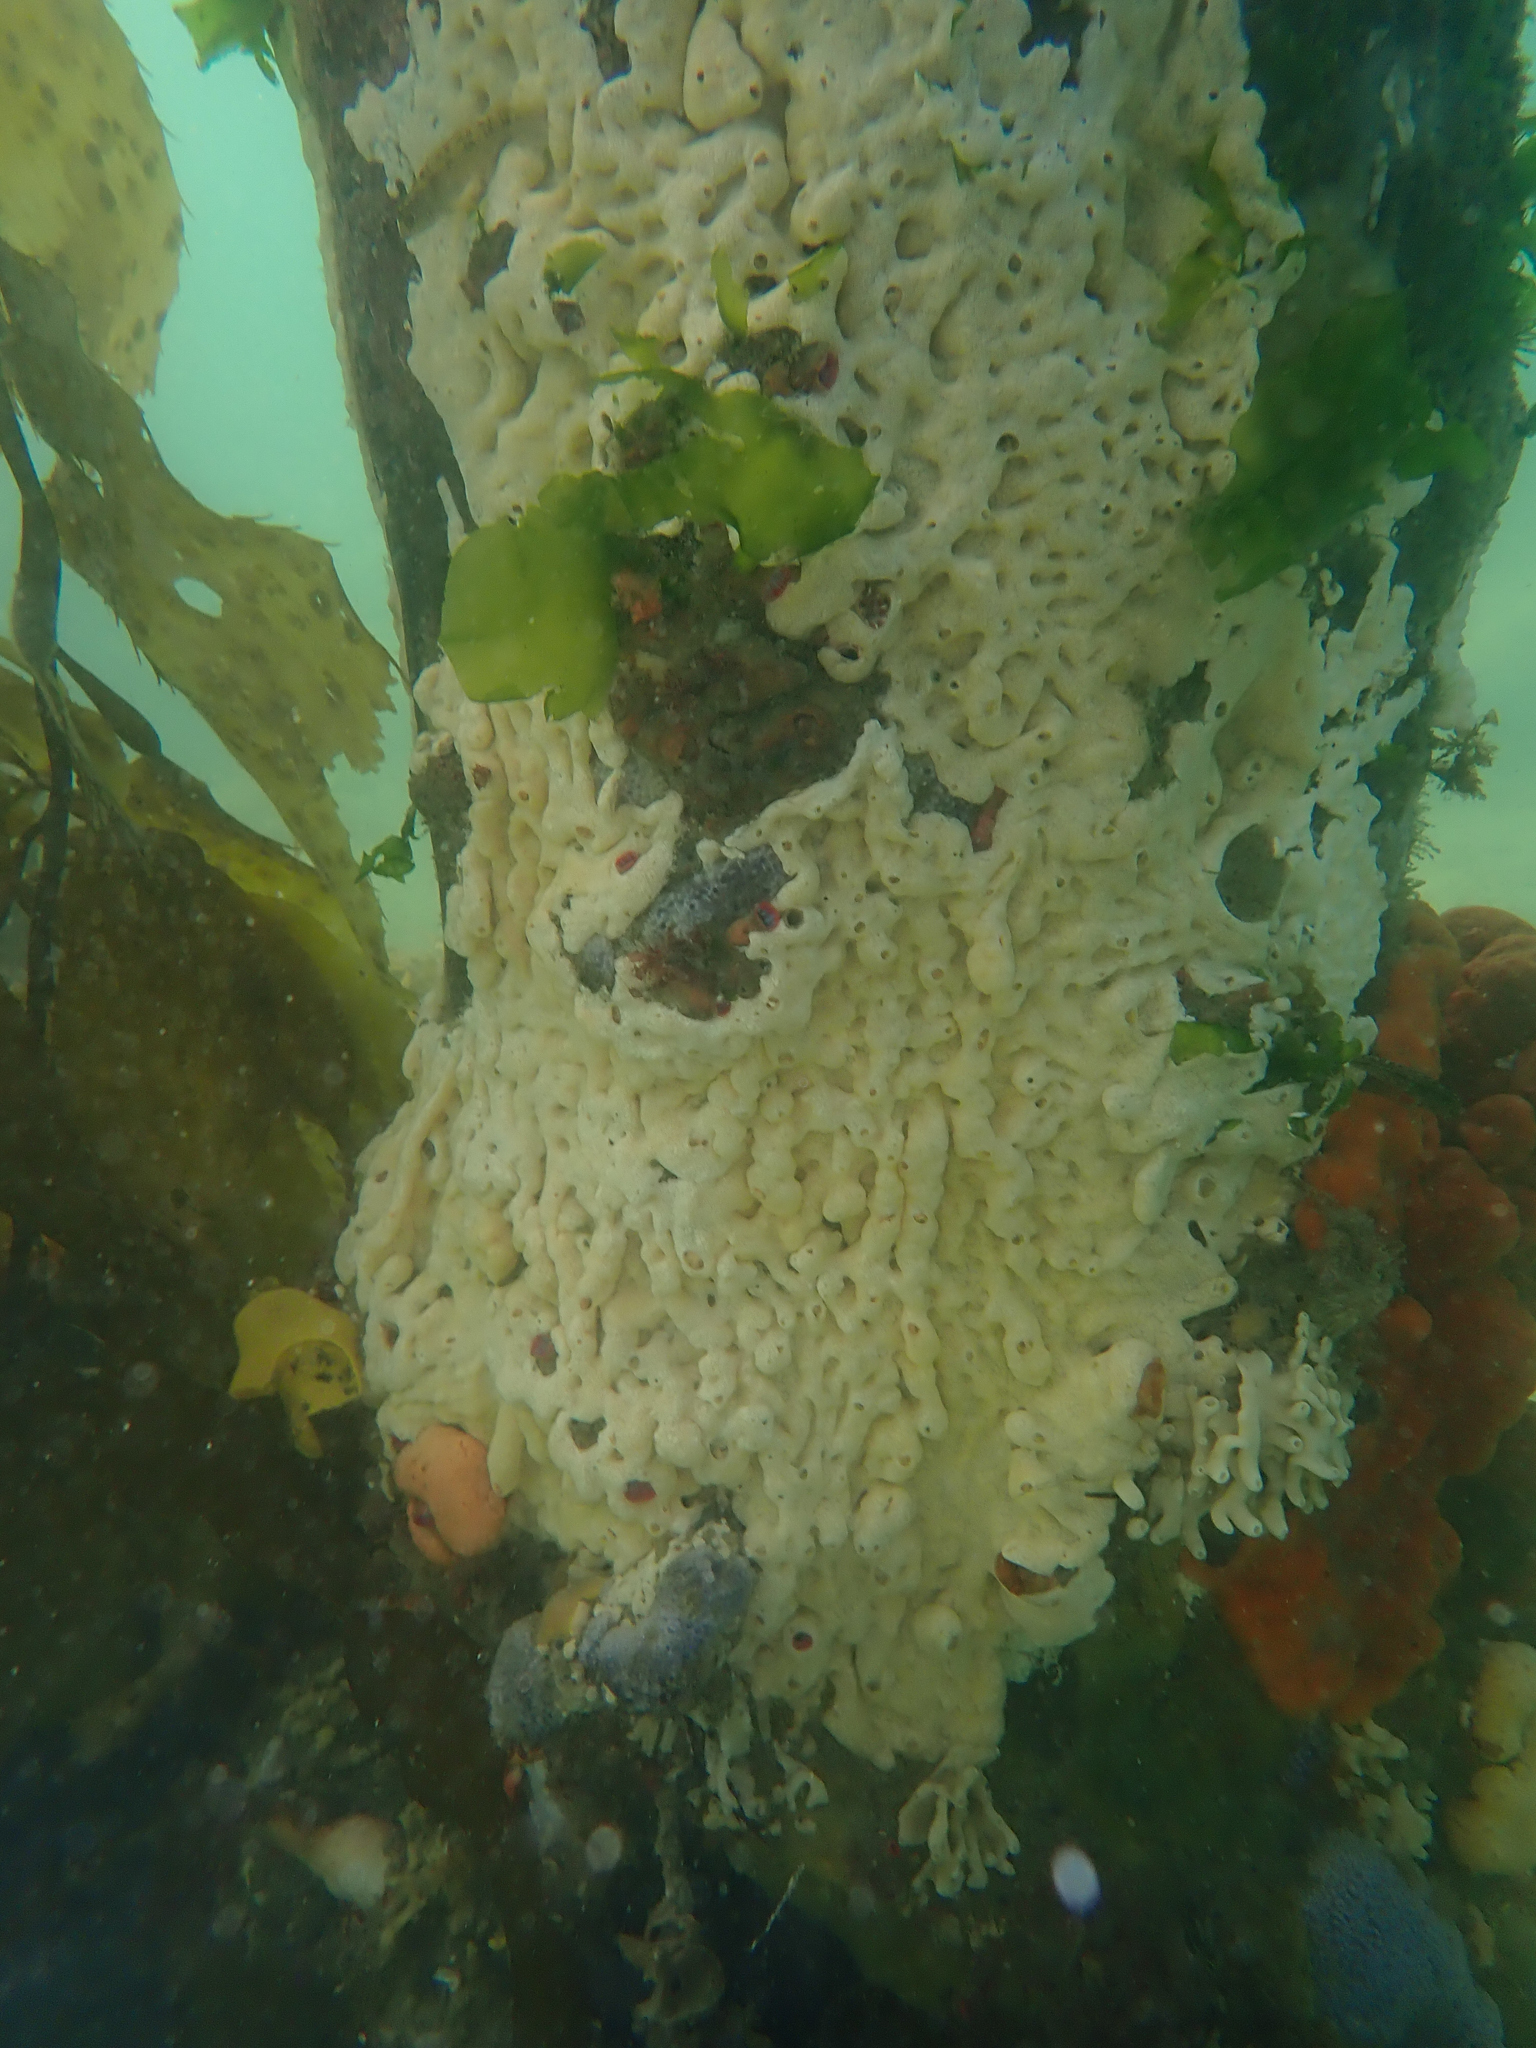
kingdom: Animalia
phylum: Chordata
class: Ascidiacea
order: Aplousobranchia
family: Didemnidae
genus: Didemnum
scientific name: Didemnum vexillum
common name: Compound sea squirt
